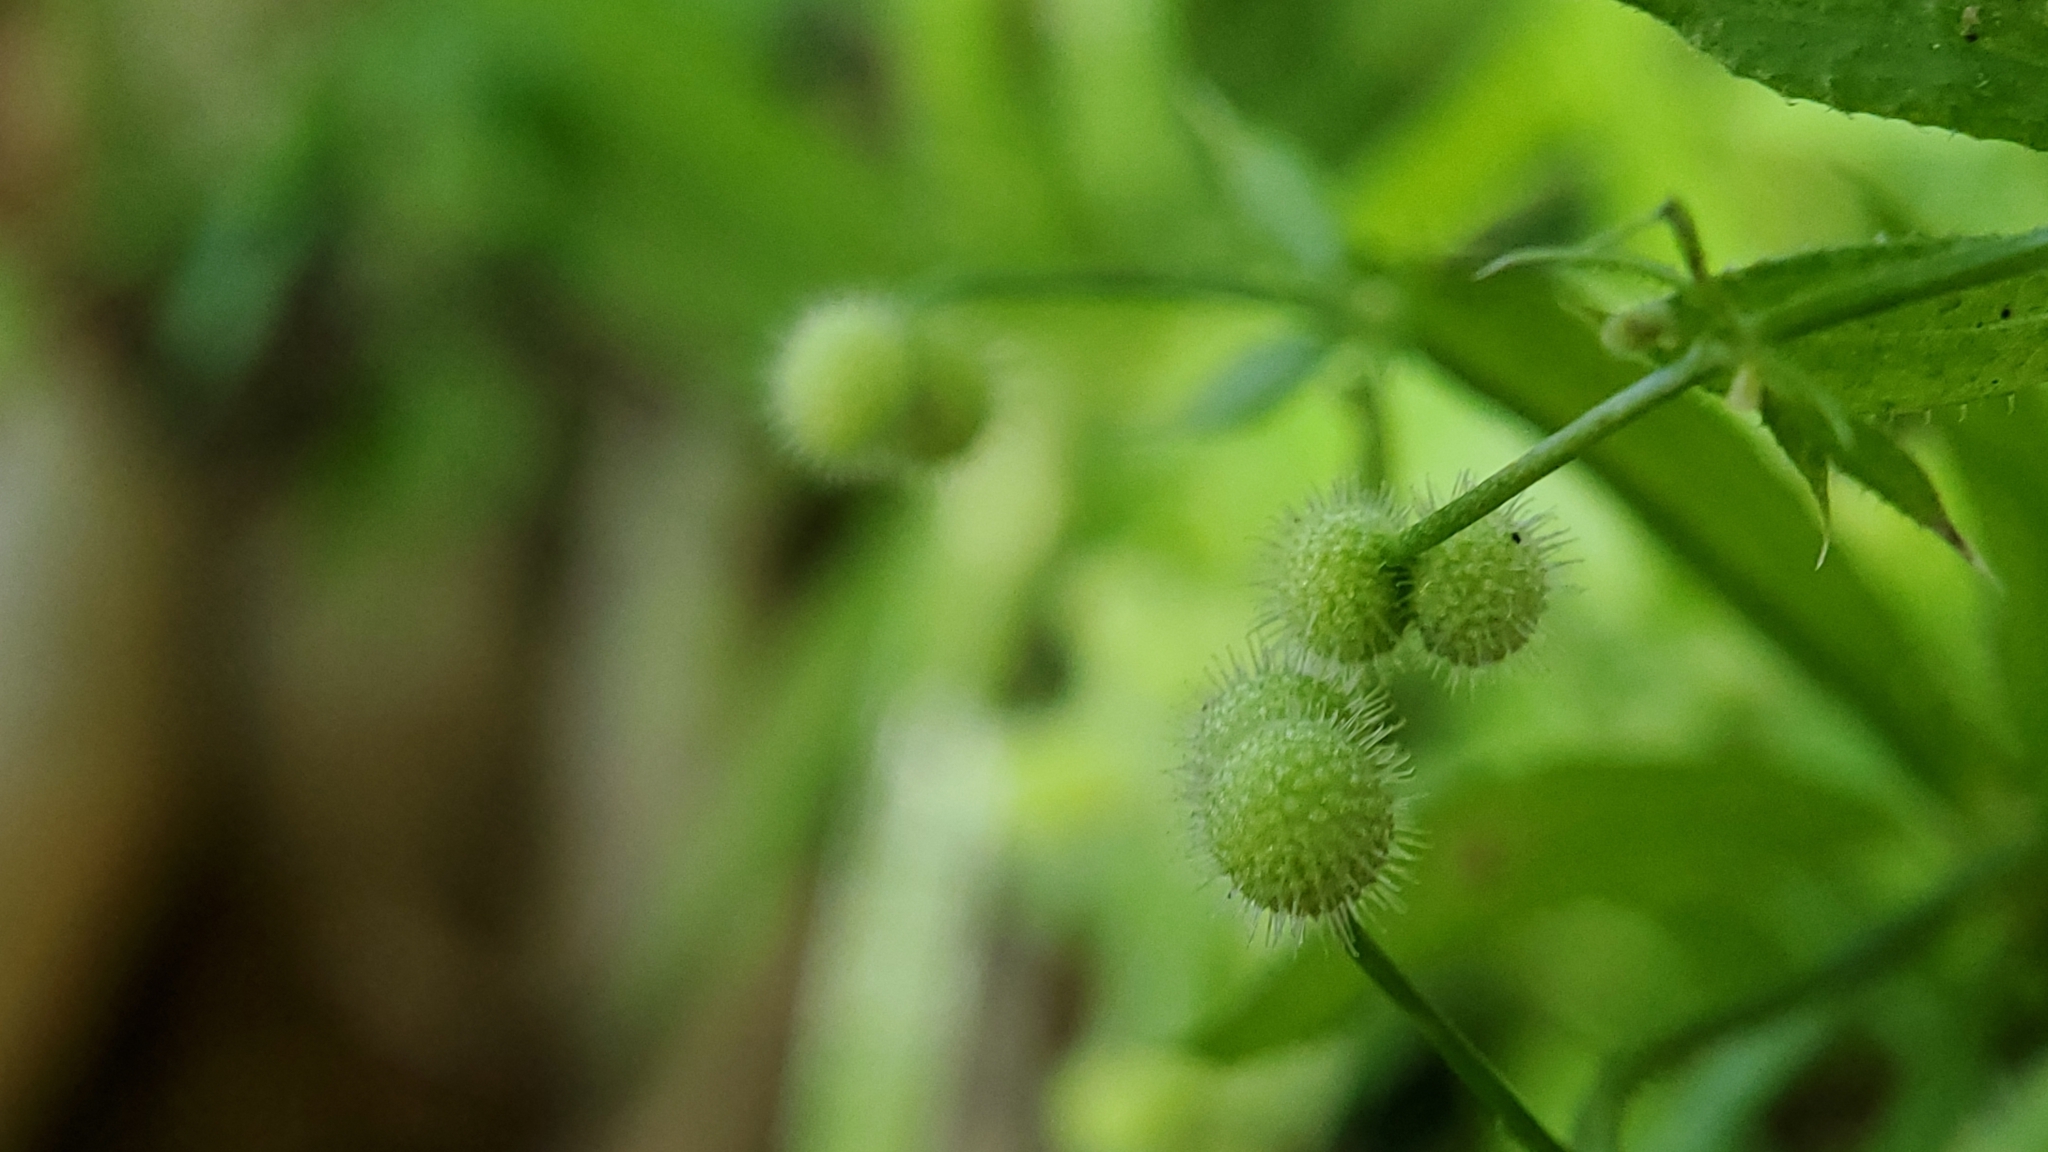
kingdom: Plantae
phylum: Tracheophyta
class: Magnoliopsida
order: Gentianales
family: Rubiaceae
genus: Galium
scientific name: Galium aparine
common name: Cleavers
